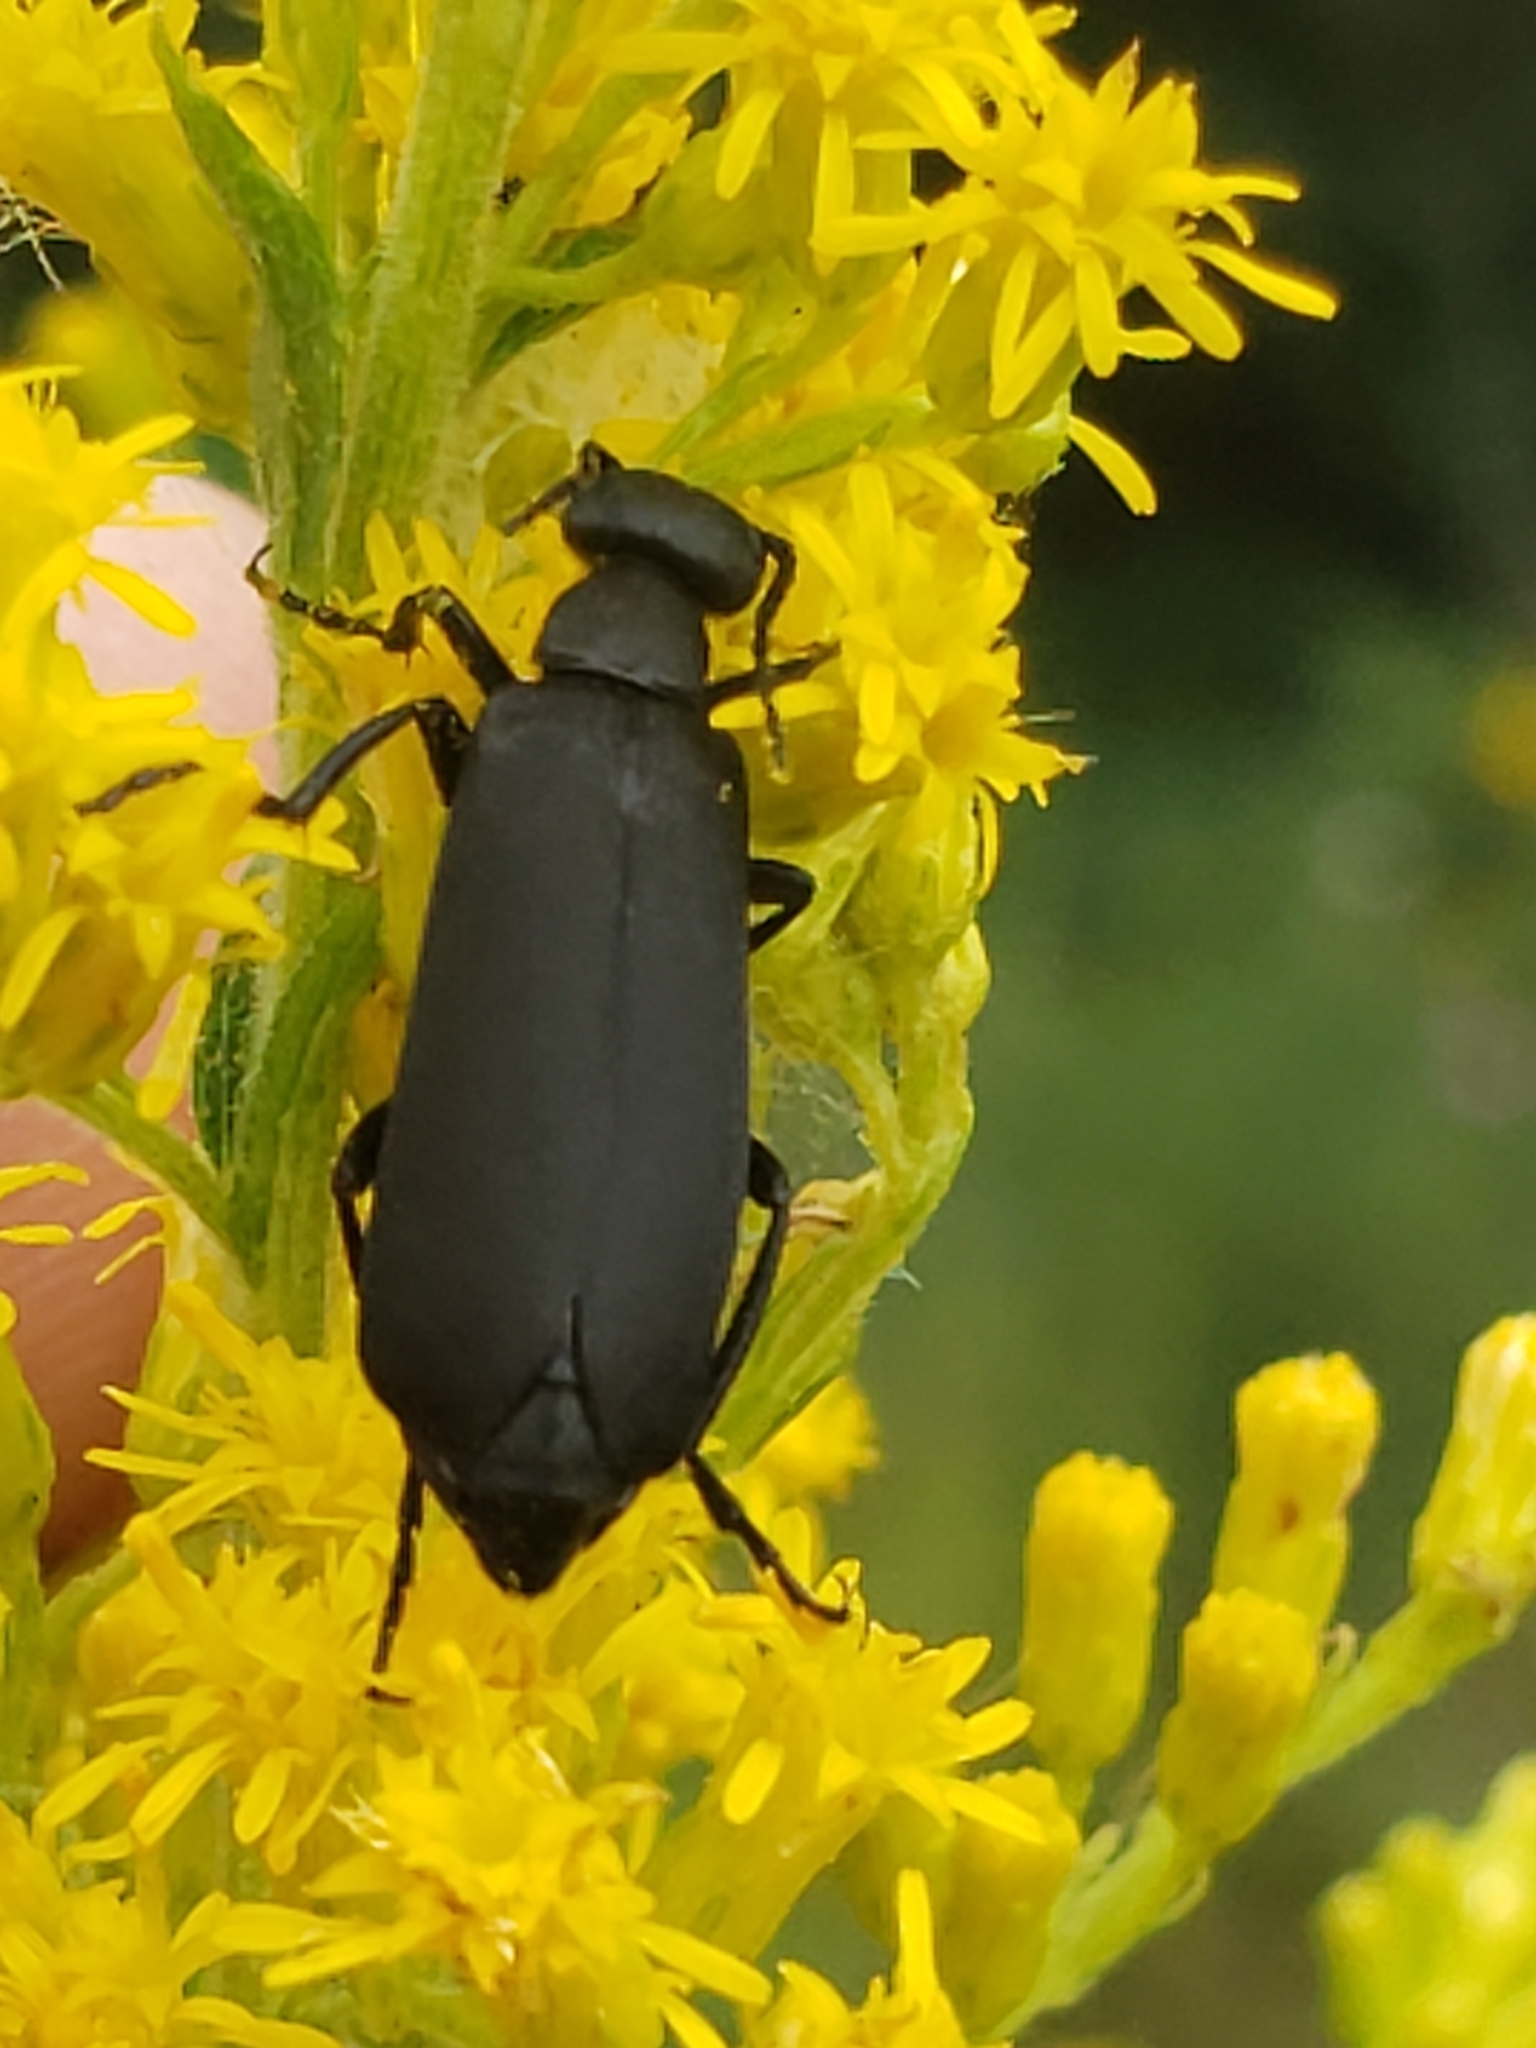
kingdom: Animalia
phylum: Arthropoda
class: Insecta
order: Coleoptera
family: Meloidae
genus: Epicauta
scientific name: Epicauta pensylvanica
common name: Black blister beetle
